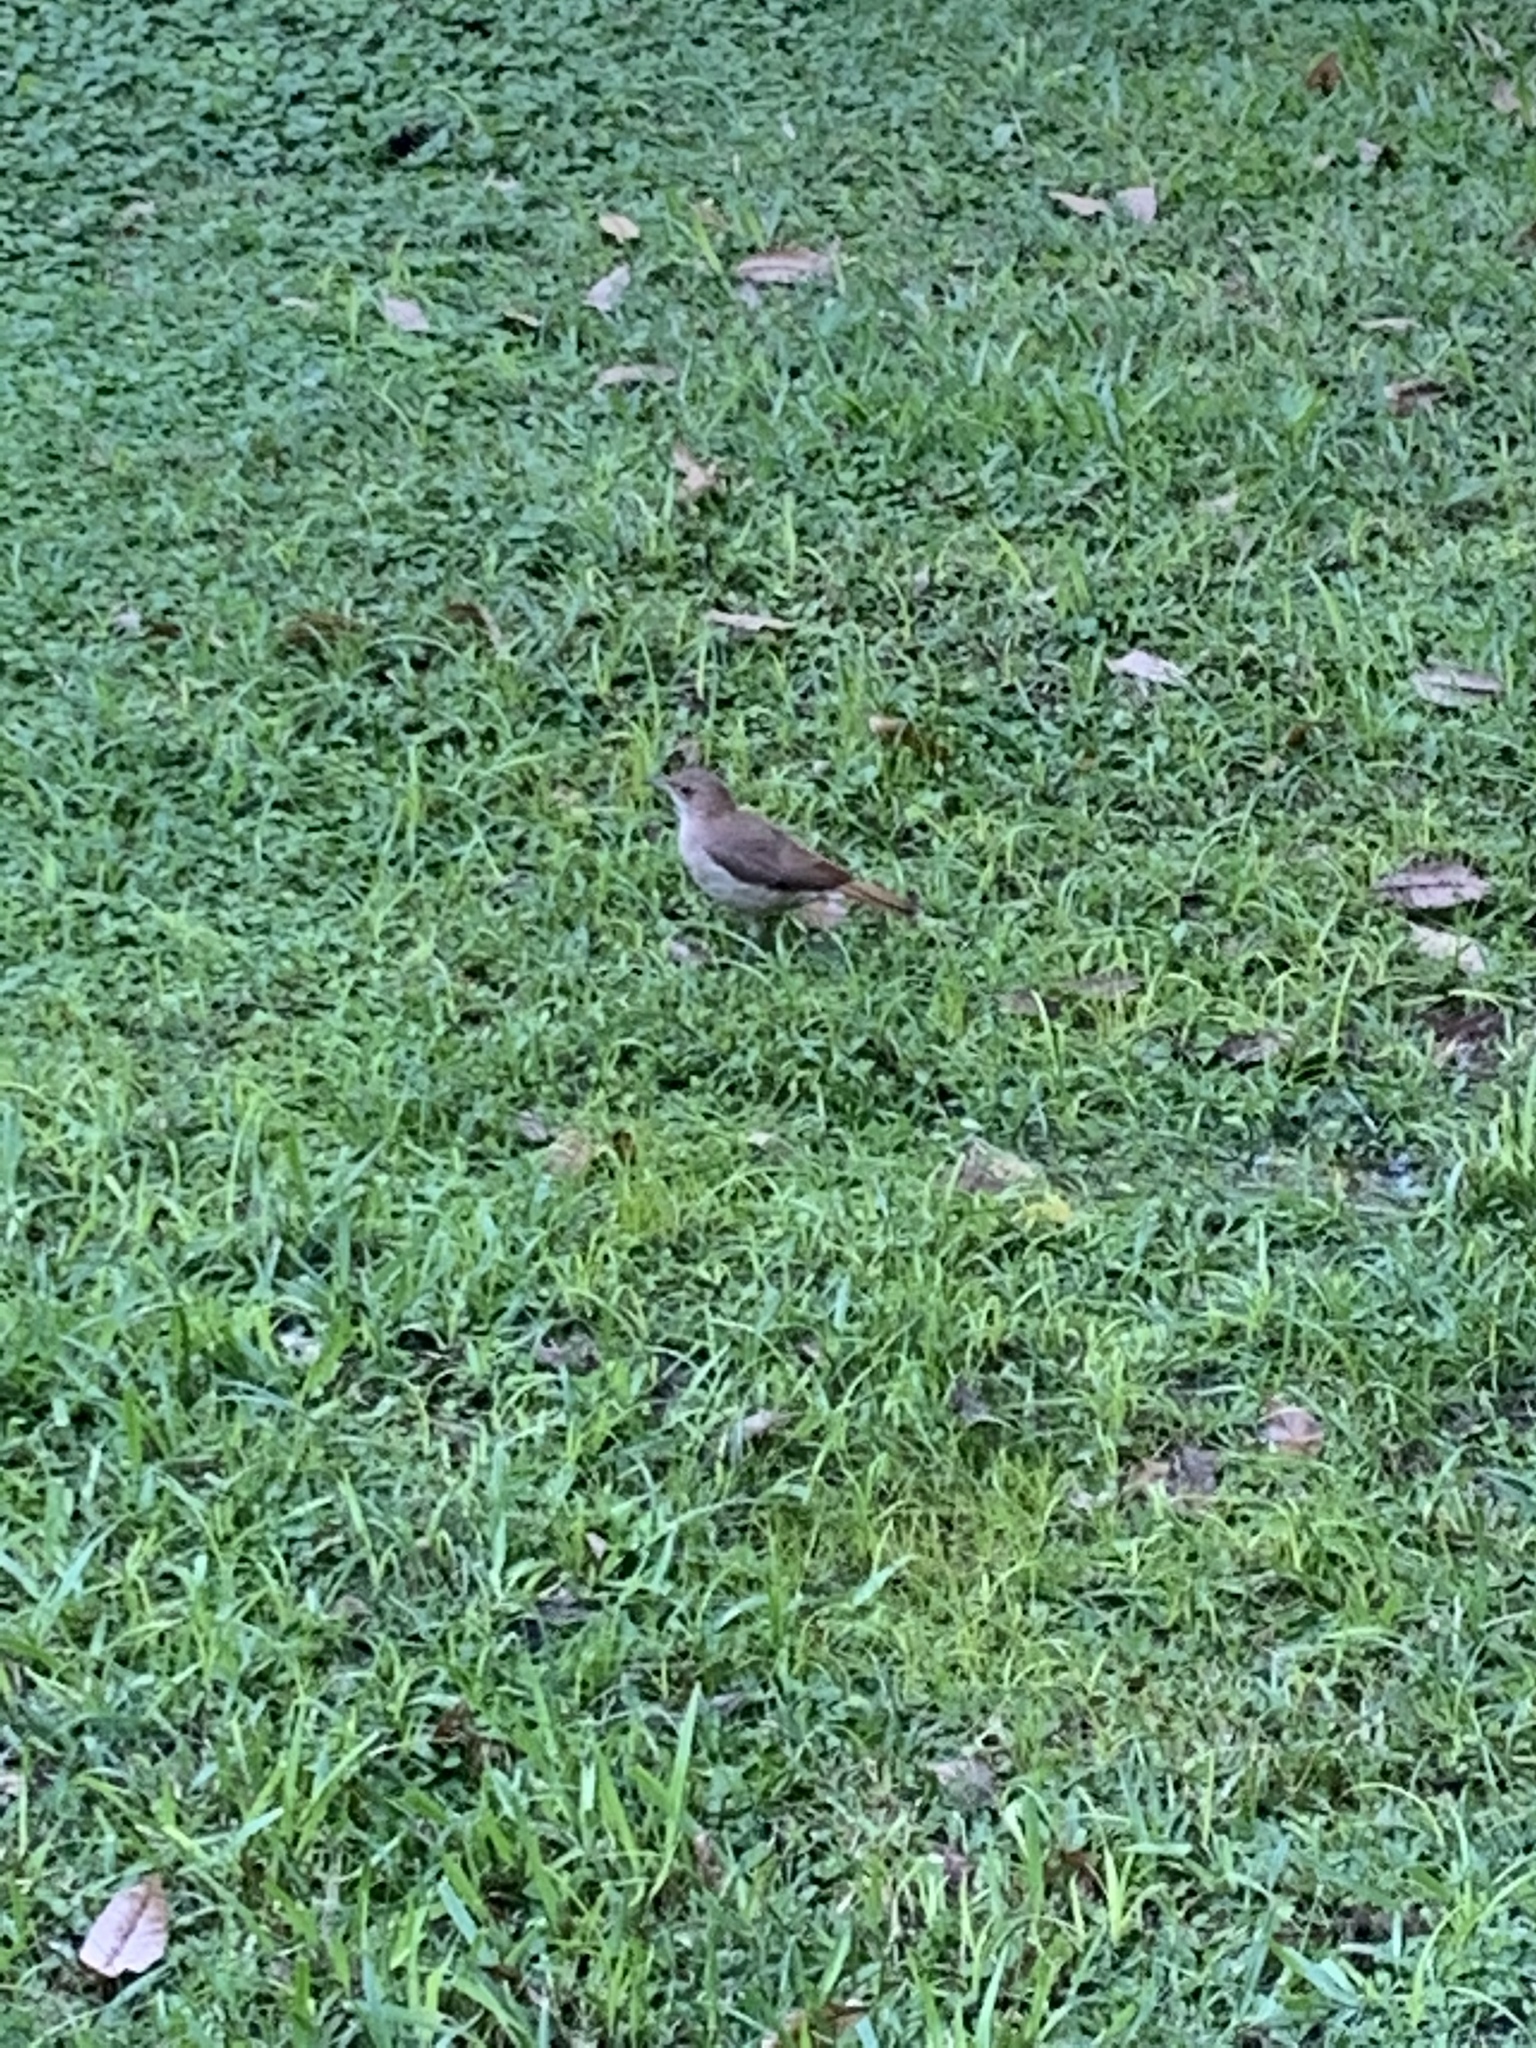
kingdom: Animalia
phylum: Chordata
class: Aves
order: Passeriformes
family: Furnariidae
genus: Furnarius
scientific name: Furnarius rufus
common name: Rufous hornero
